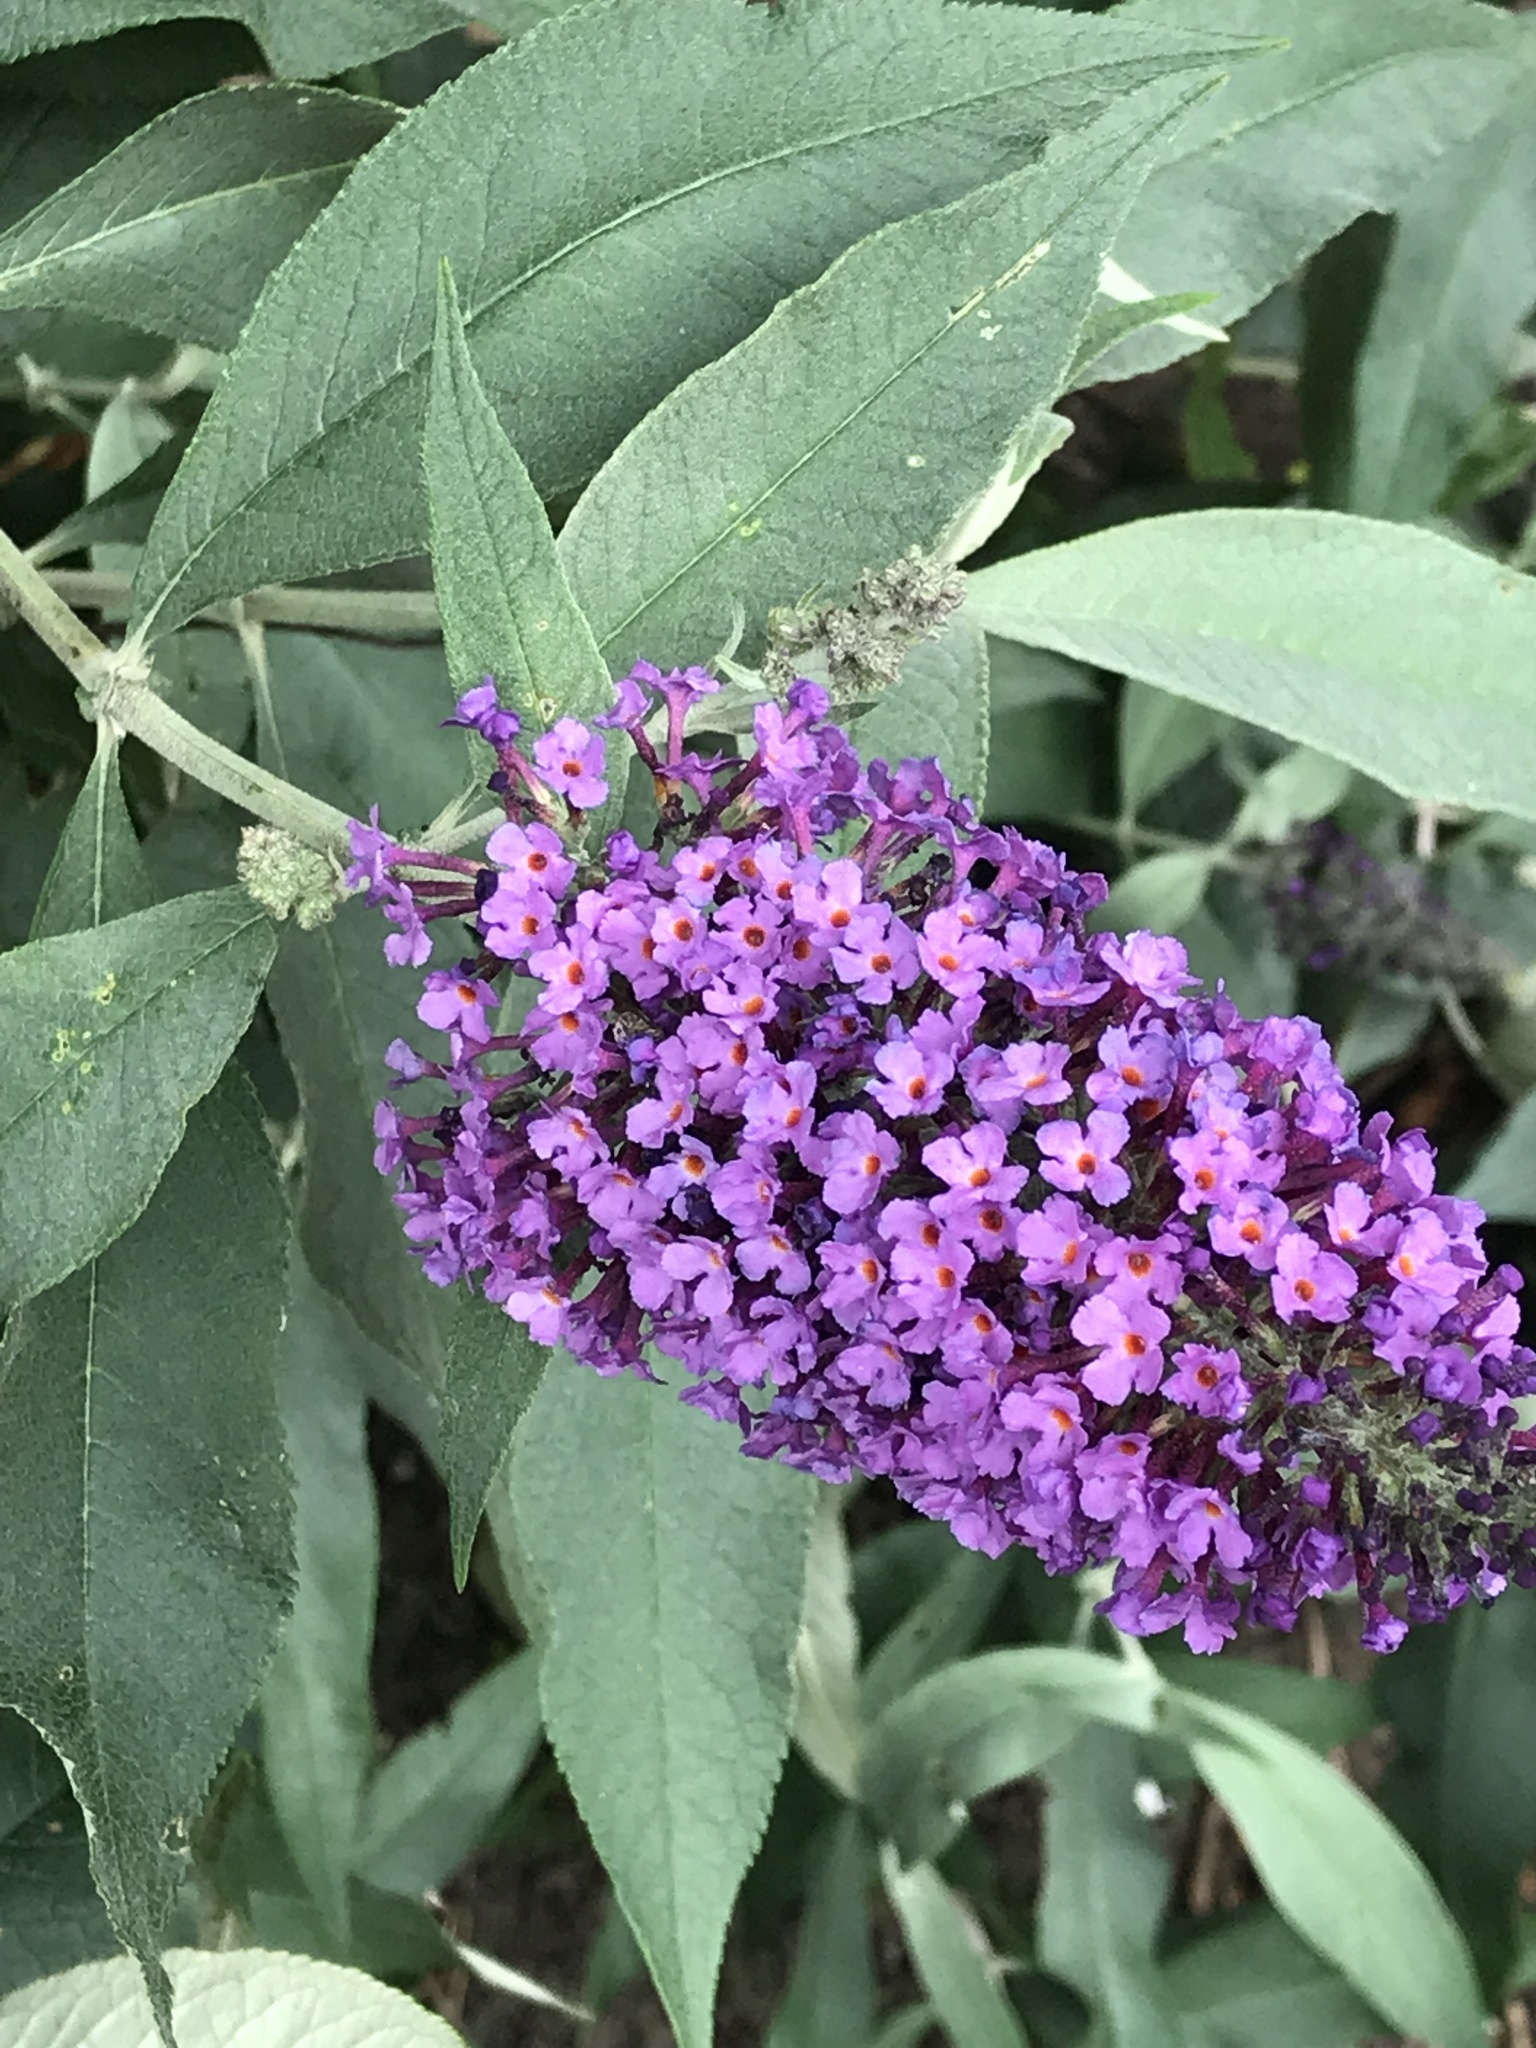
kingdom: Plantae
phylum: Tracheophyta
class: Magnoliopsida
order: Lamiales
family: Scrophulariaceae
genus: Buddleja
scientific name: Buddleja davidii
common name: Butterfly-bush
